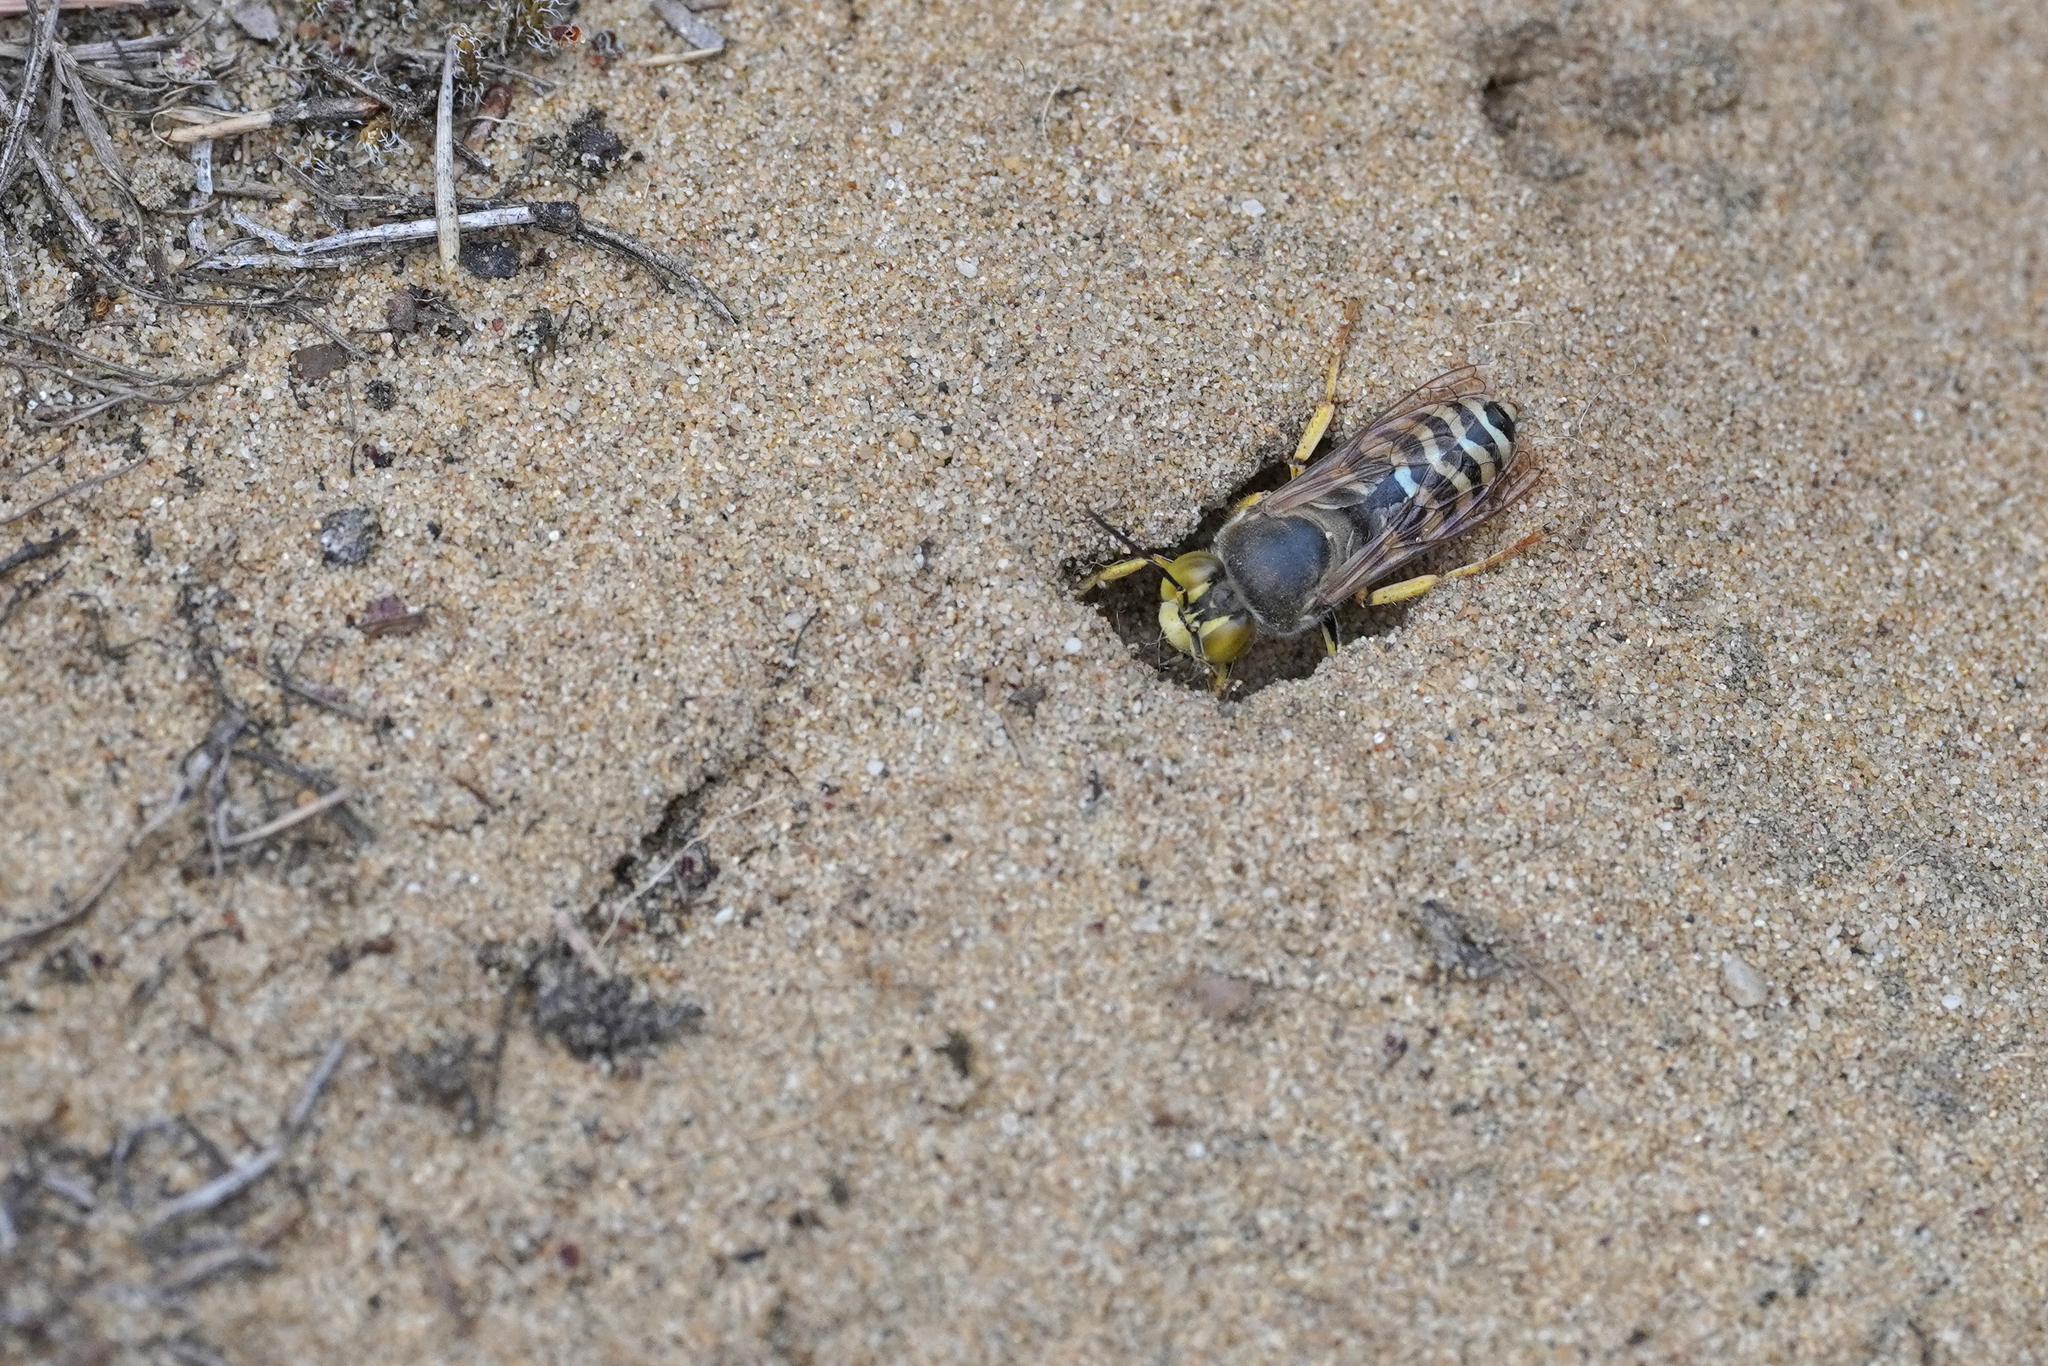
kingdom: Animalia
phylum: Arthropoda
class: Insecta
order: Hymenoptera
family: Crabronidae
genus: Bembix
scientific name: Bembix rostrata
